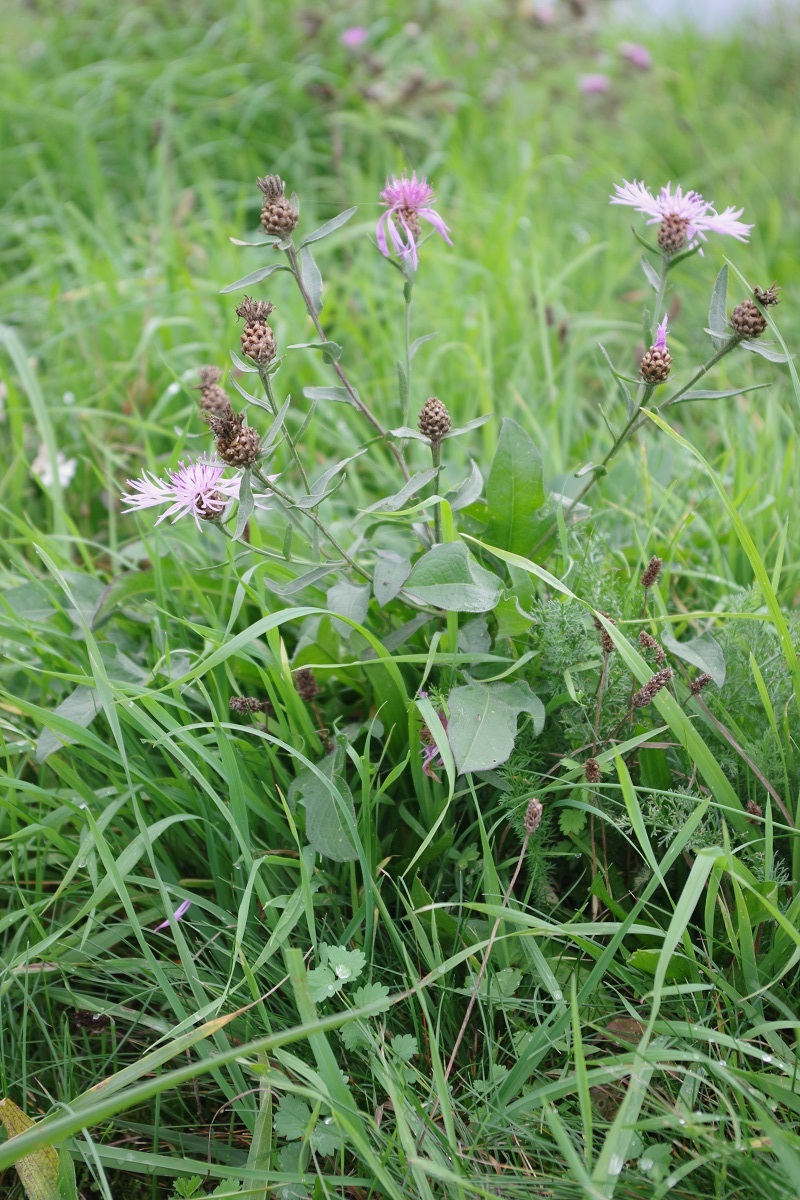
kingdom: Plantae
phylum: Tracheophyta
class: Magnoliopsida
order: Asterales
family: Asteraceae
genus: Centaurea
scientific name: Centaurea jacea
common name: Brown knapweed
